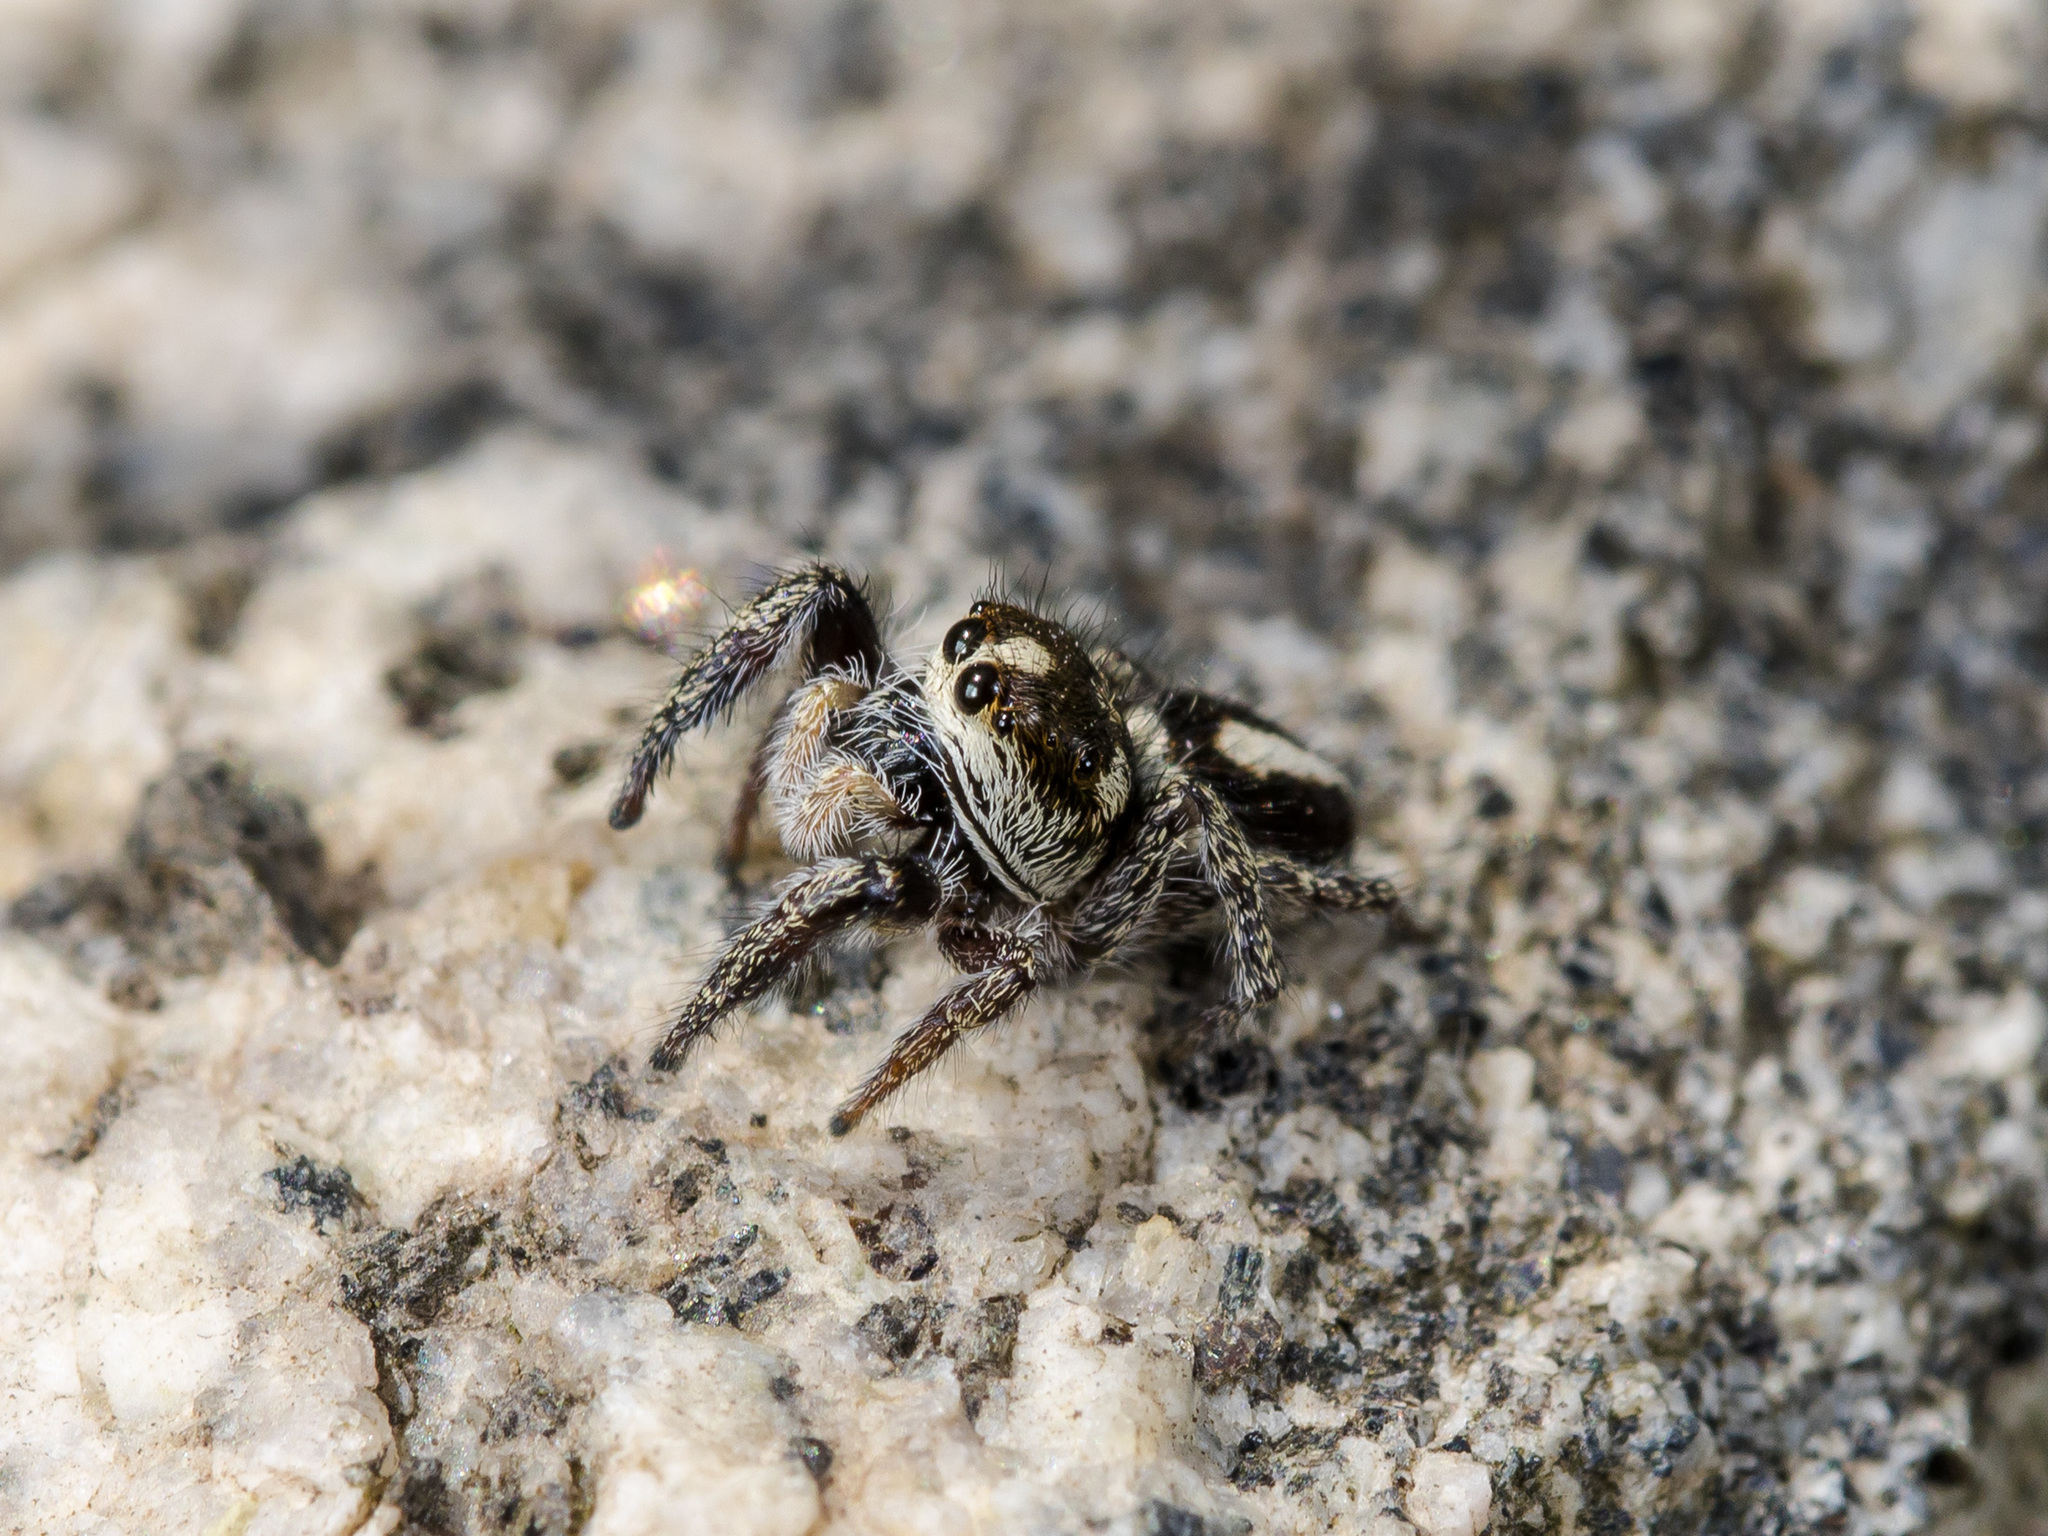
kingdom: Animalia
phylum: Arthropoda
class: Arachnida
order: Araneae
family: Salticidae
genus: Pellenes
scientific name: Pellenes allegrii
